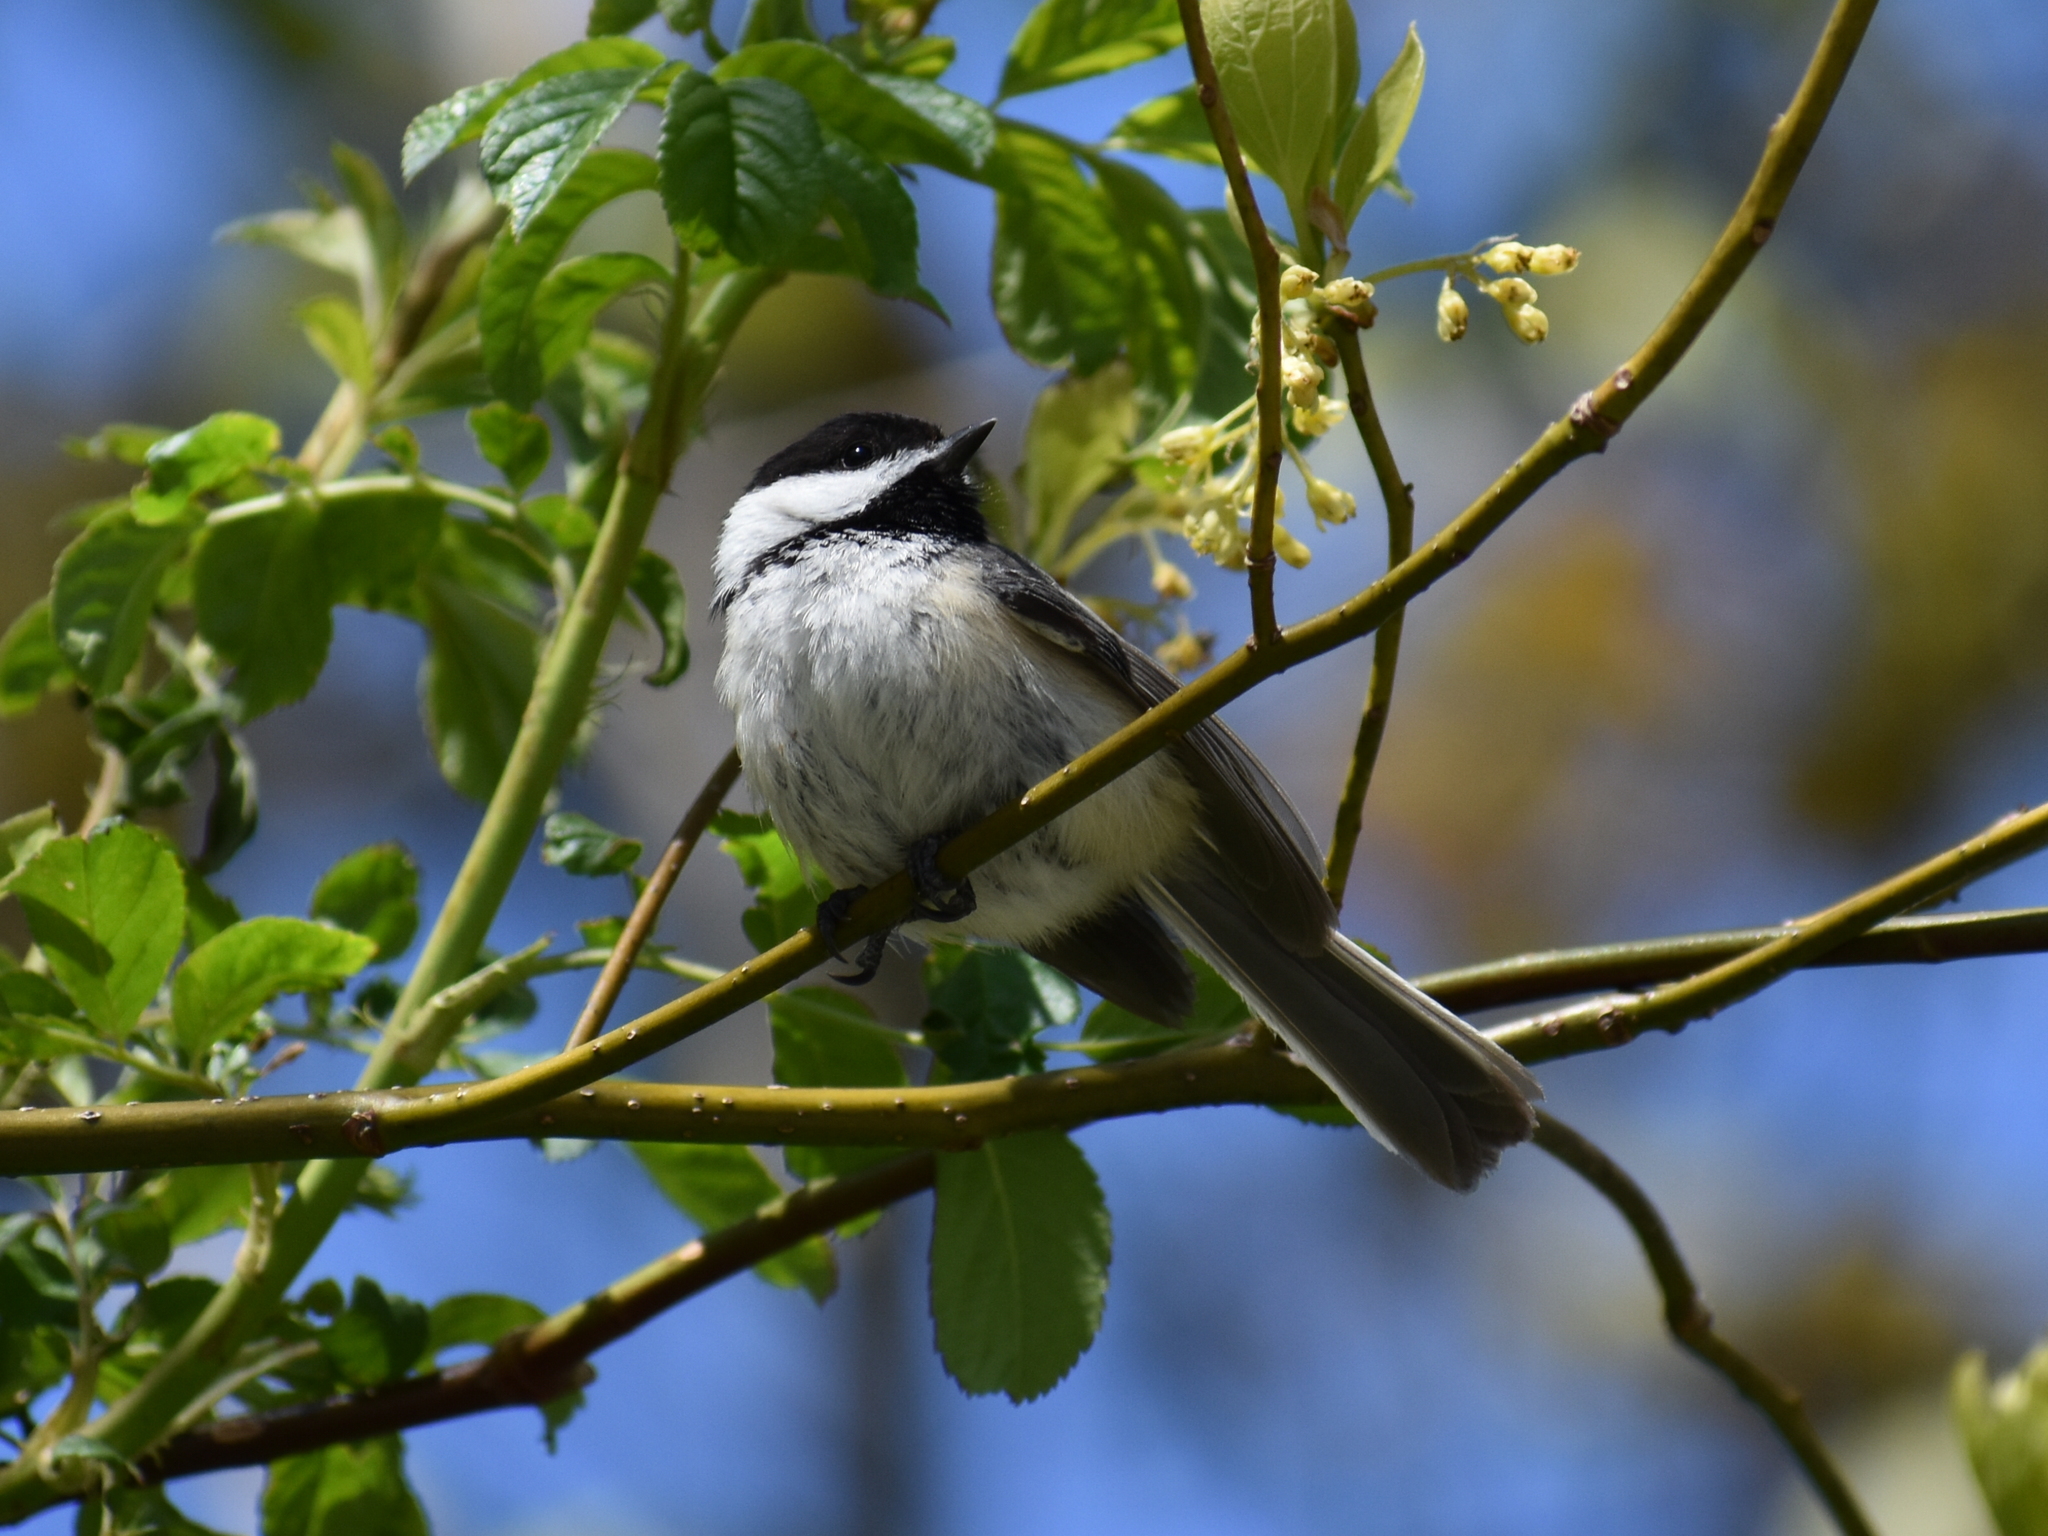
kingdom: Animalia
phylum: Chordata
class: Aves
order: Passeriformes
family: Paridae
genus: Poecile
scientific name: Poecile atricapillus
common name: Black-capped chickadee
